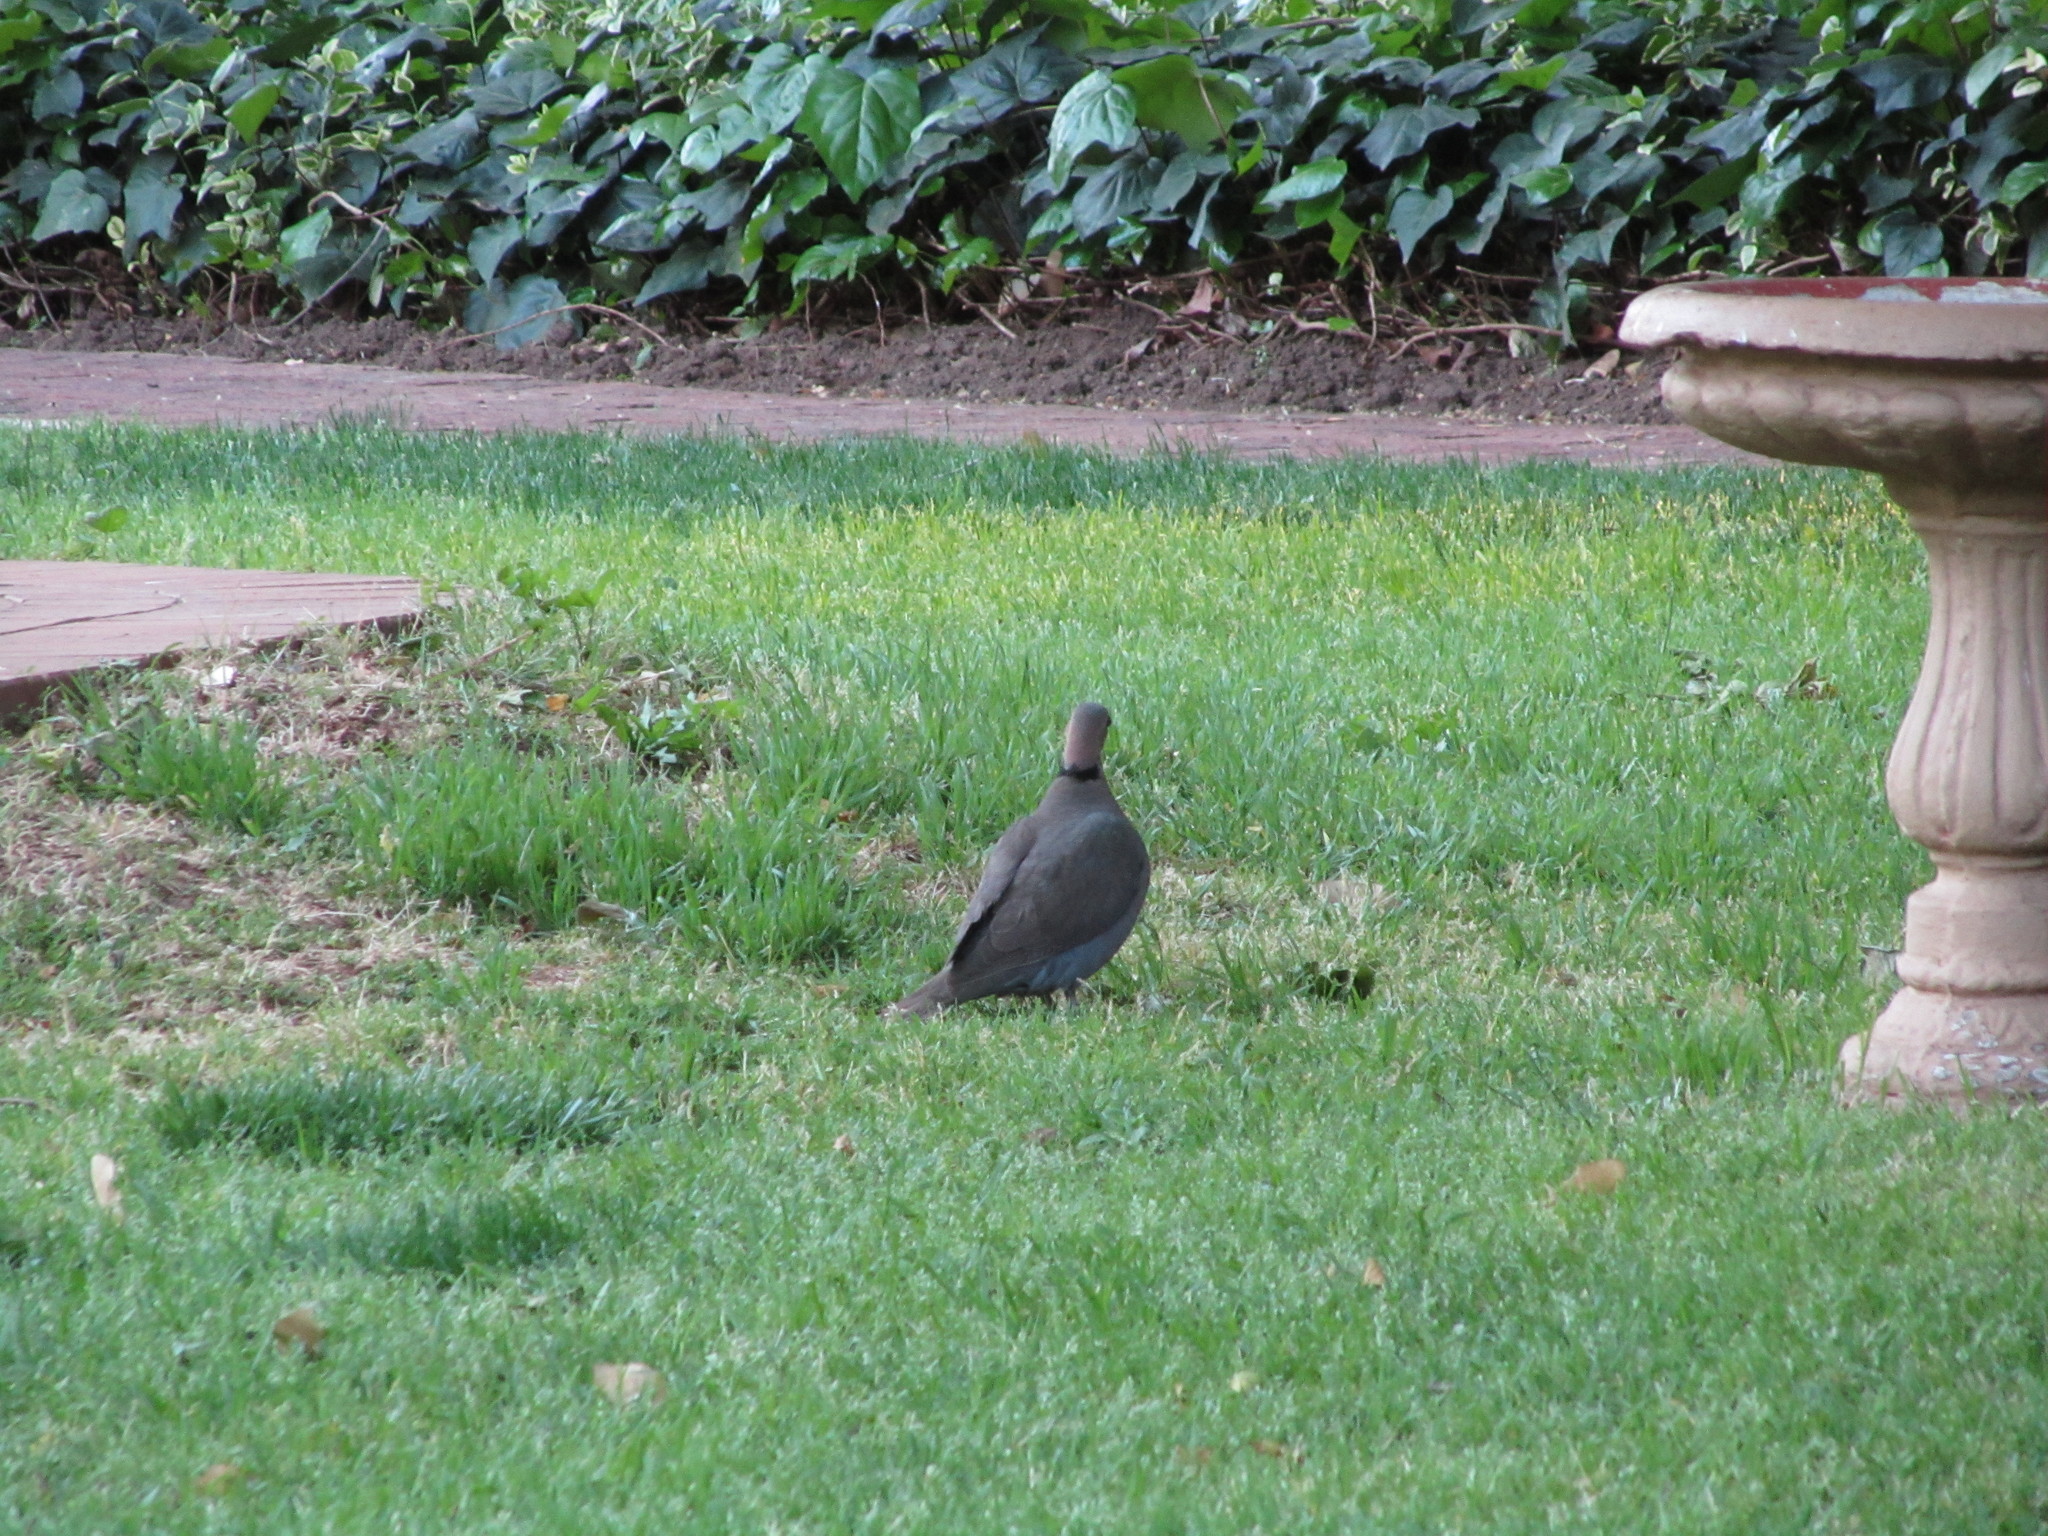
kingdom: Animalia
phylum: Chordata
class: Aves
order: Columbiformes
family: Columbidae
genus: Streptopelia
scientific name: Streptopelia semitorquata
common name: Red-eyed dove
